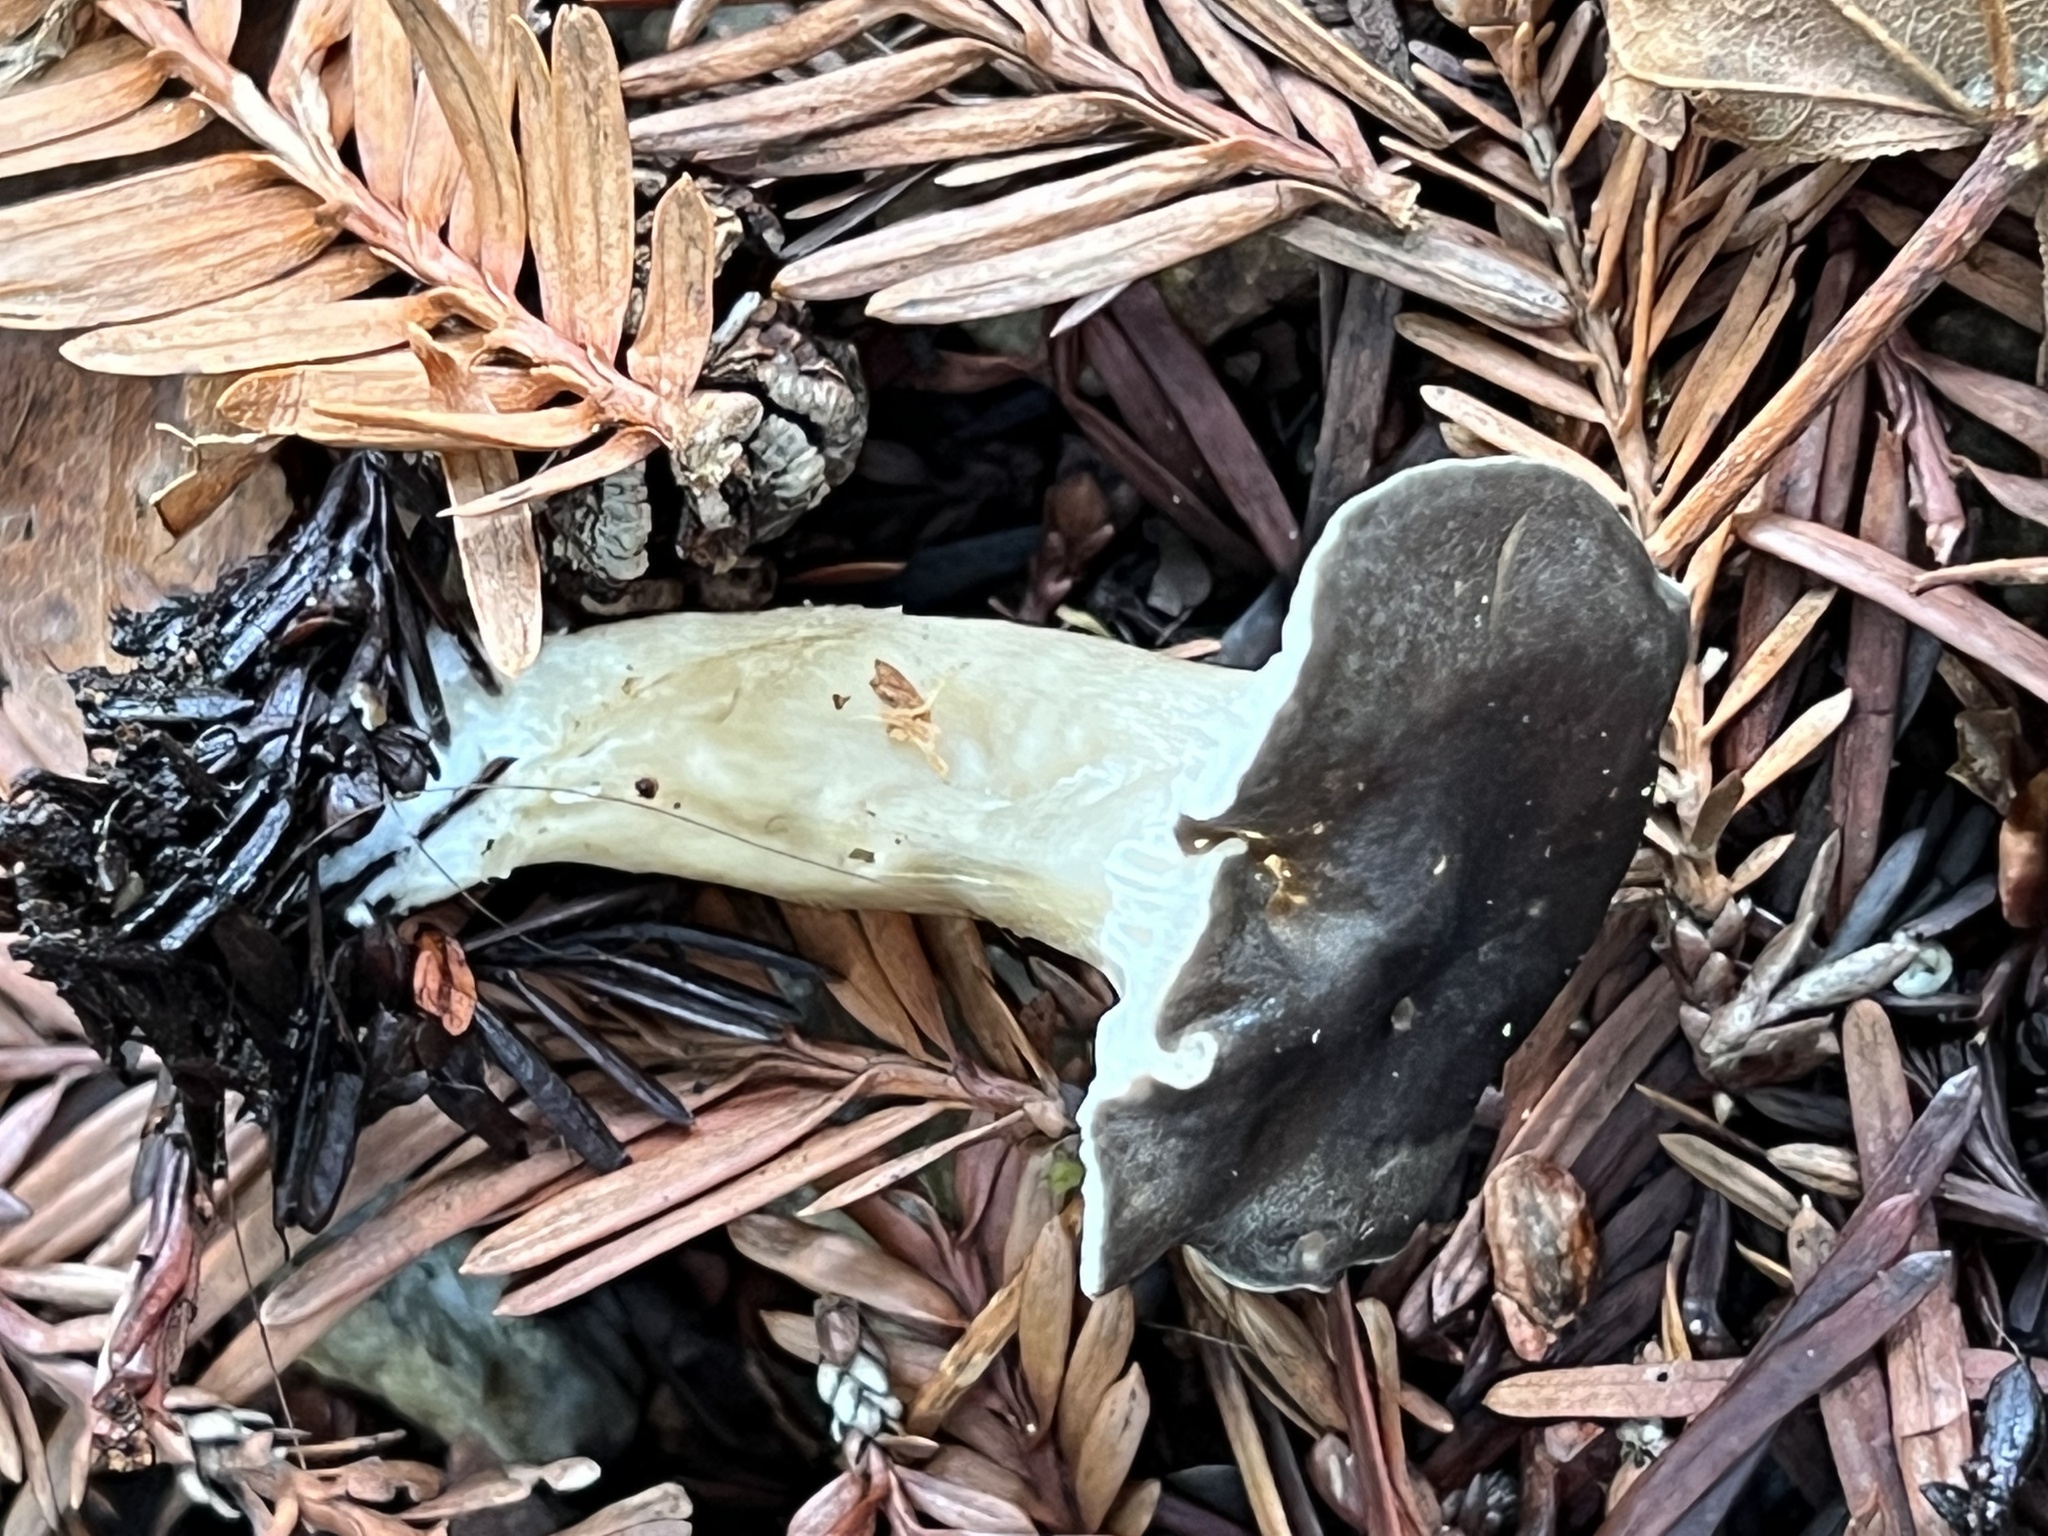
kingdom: Fungi
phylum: Basidiomycota
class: Agaricomycetes
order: Agaricales
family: Hygrophoraceae
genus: Spodocybe
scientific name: Spodocybe trulliformis
